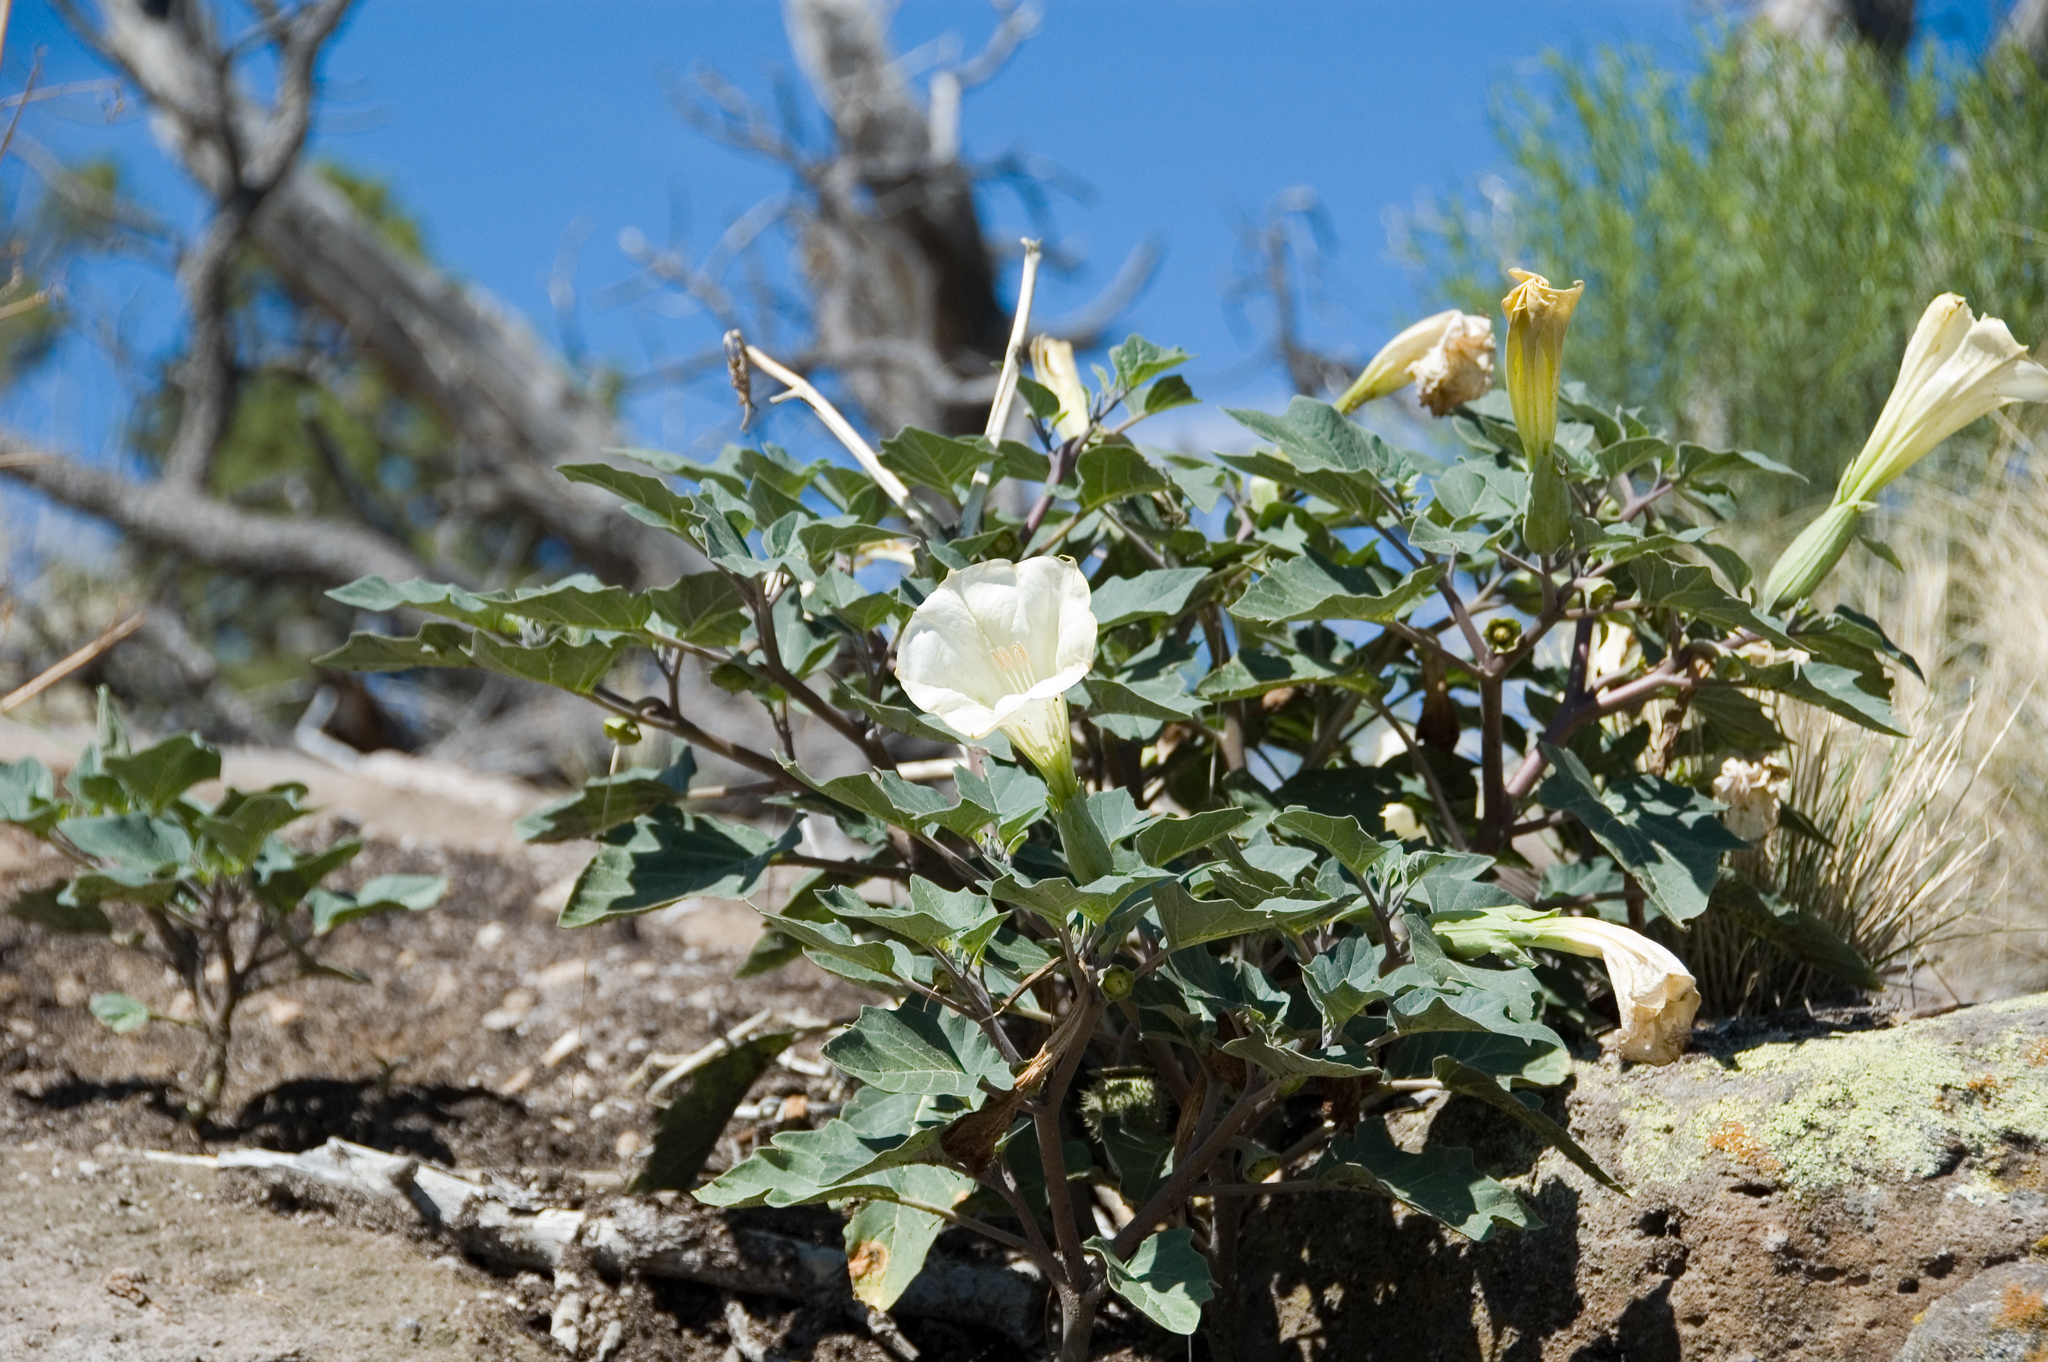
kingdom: Plantae
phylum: Tracheophyta
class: Magnoliopsida
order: Solanales
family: Solanaceae
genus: Datura
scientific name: Datura wrightii
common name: Sacred thorn-apple
